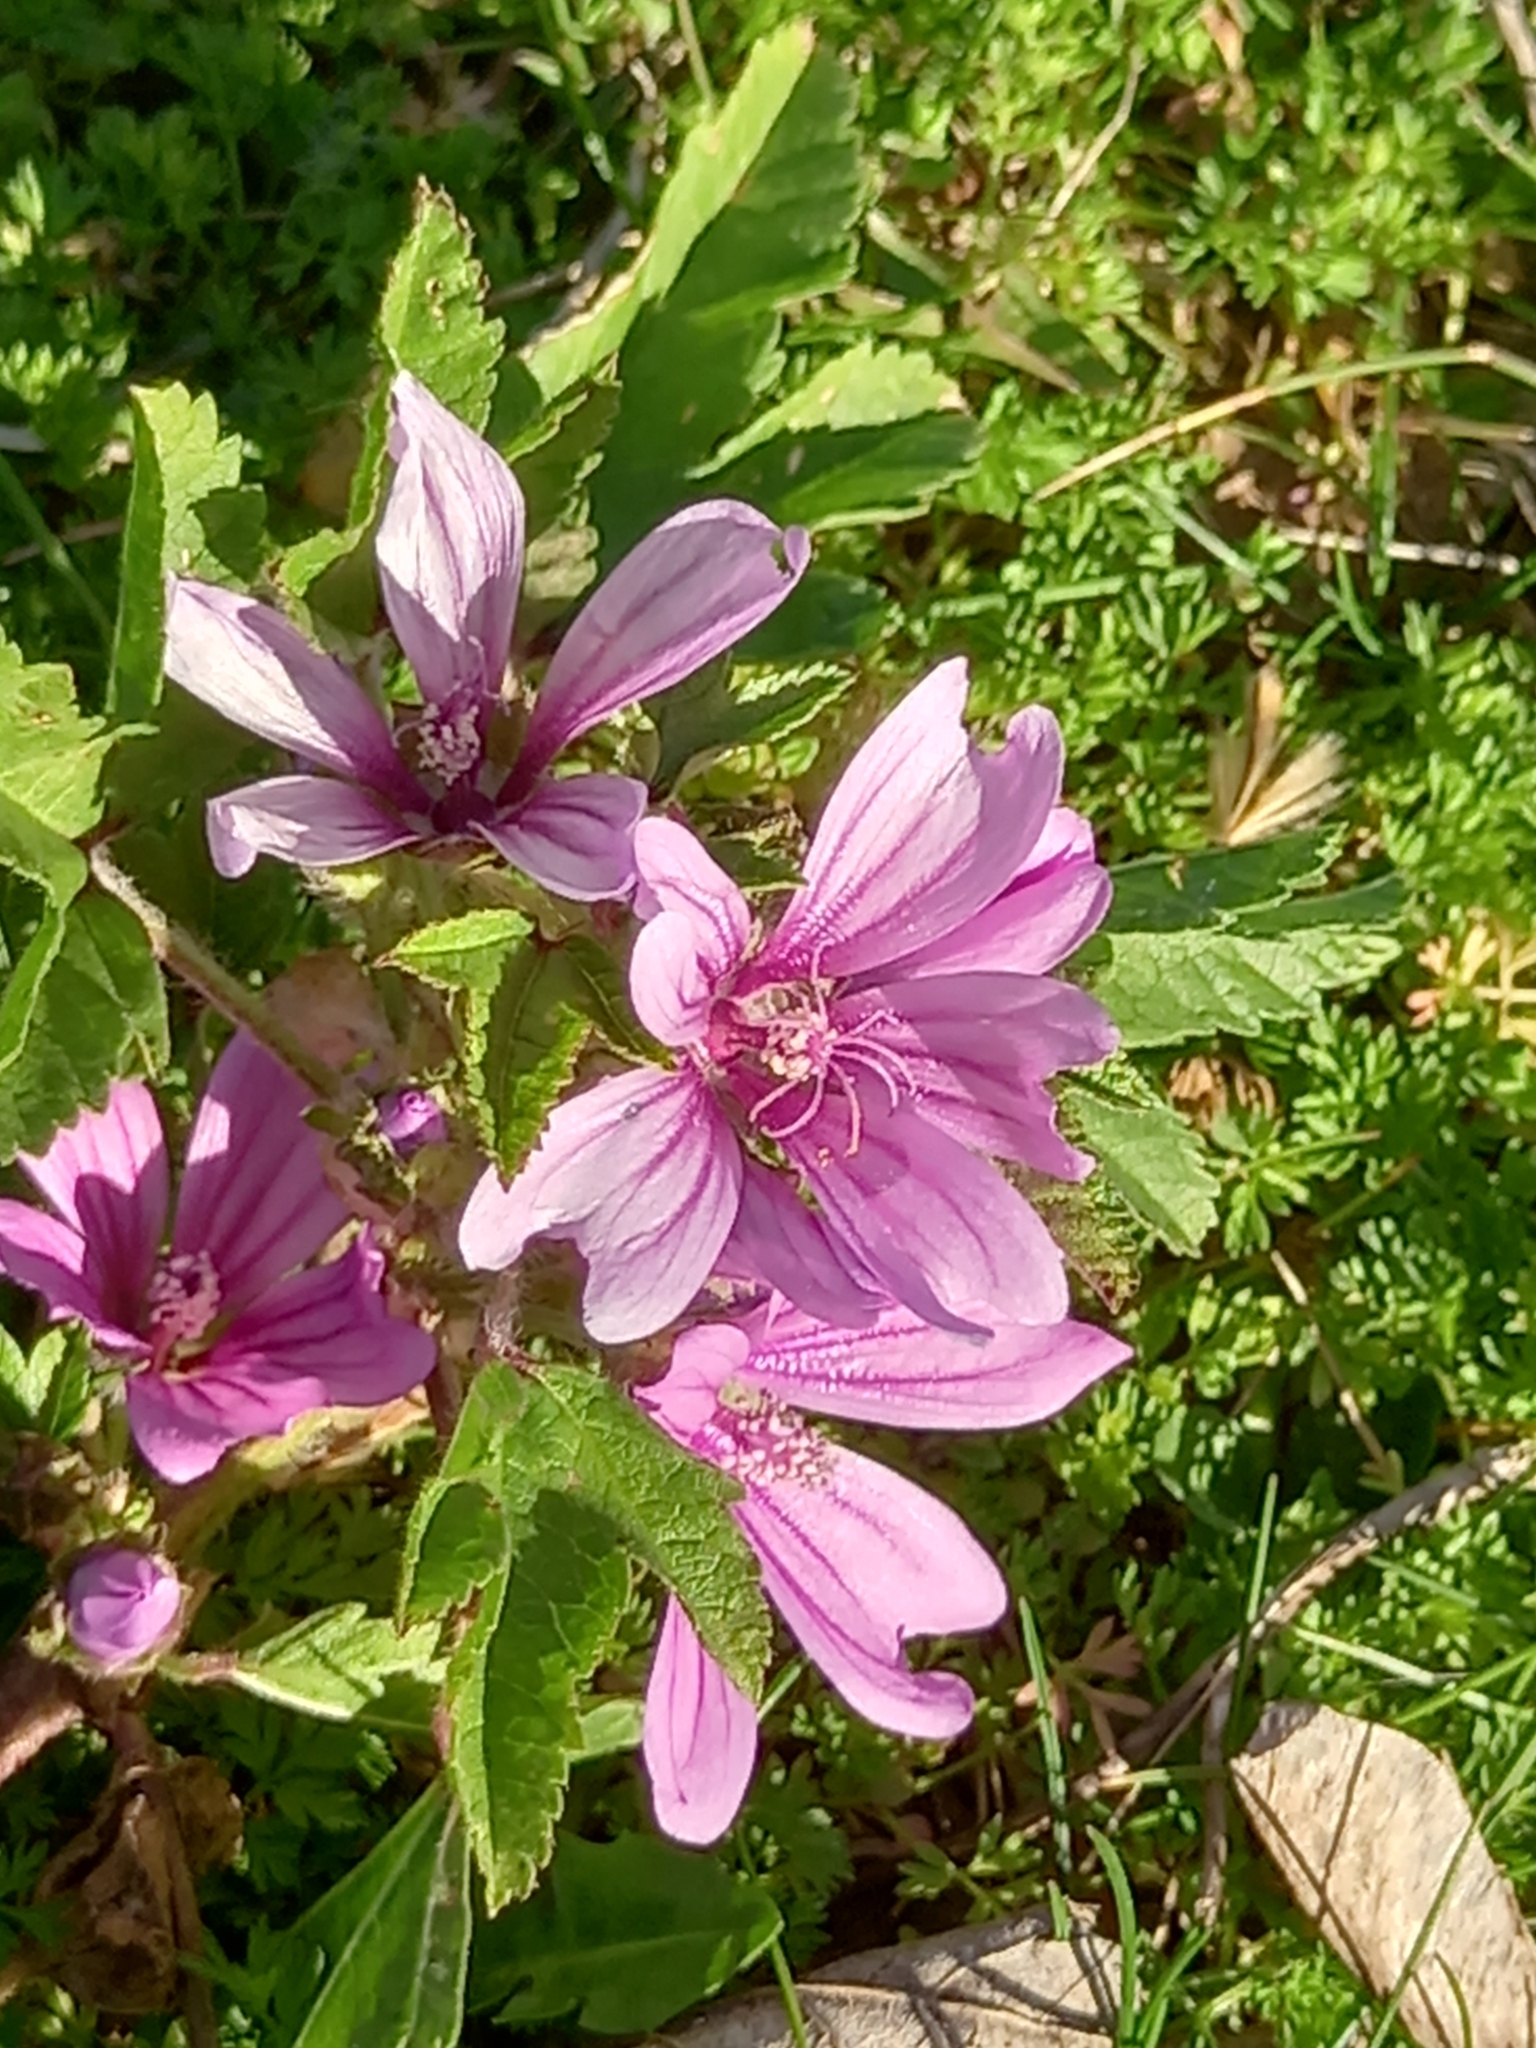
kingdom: Plantae
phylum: Tracheophyta
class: Magnoliopsida
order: Malvales
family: Malvaceae
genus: Malva
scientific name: Malva sylvestris
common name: Common mallow
